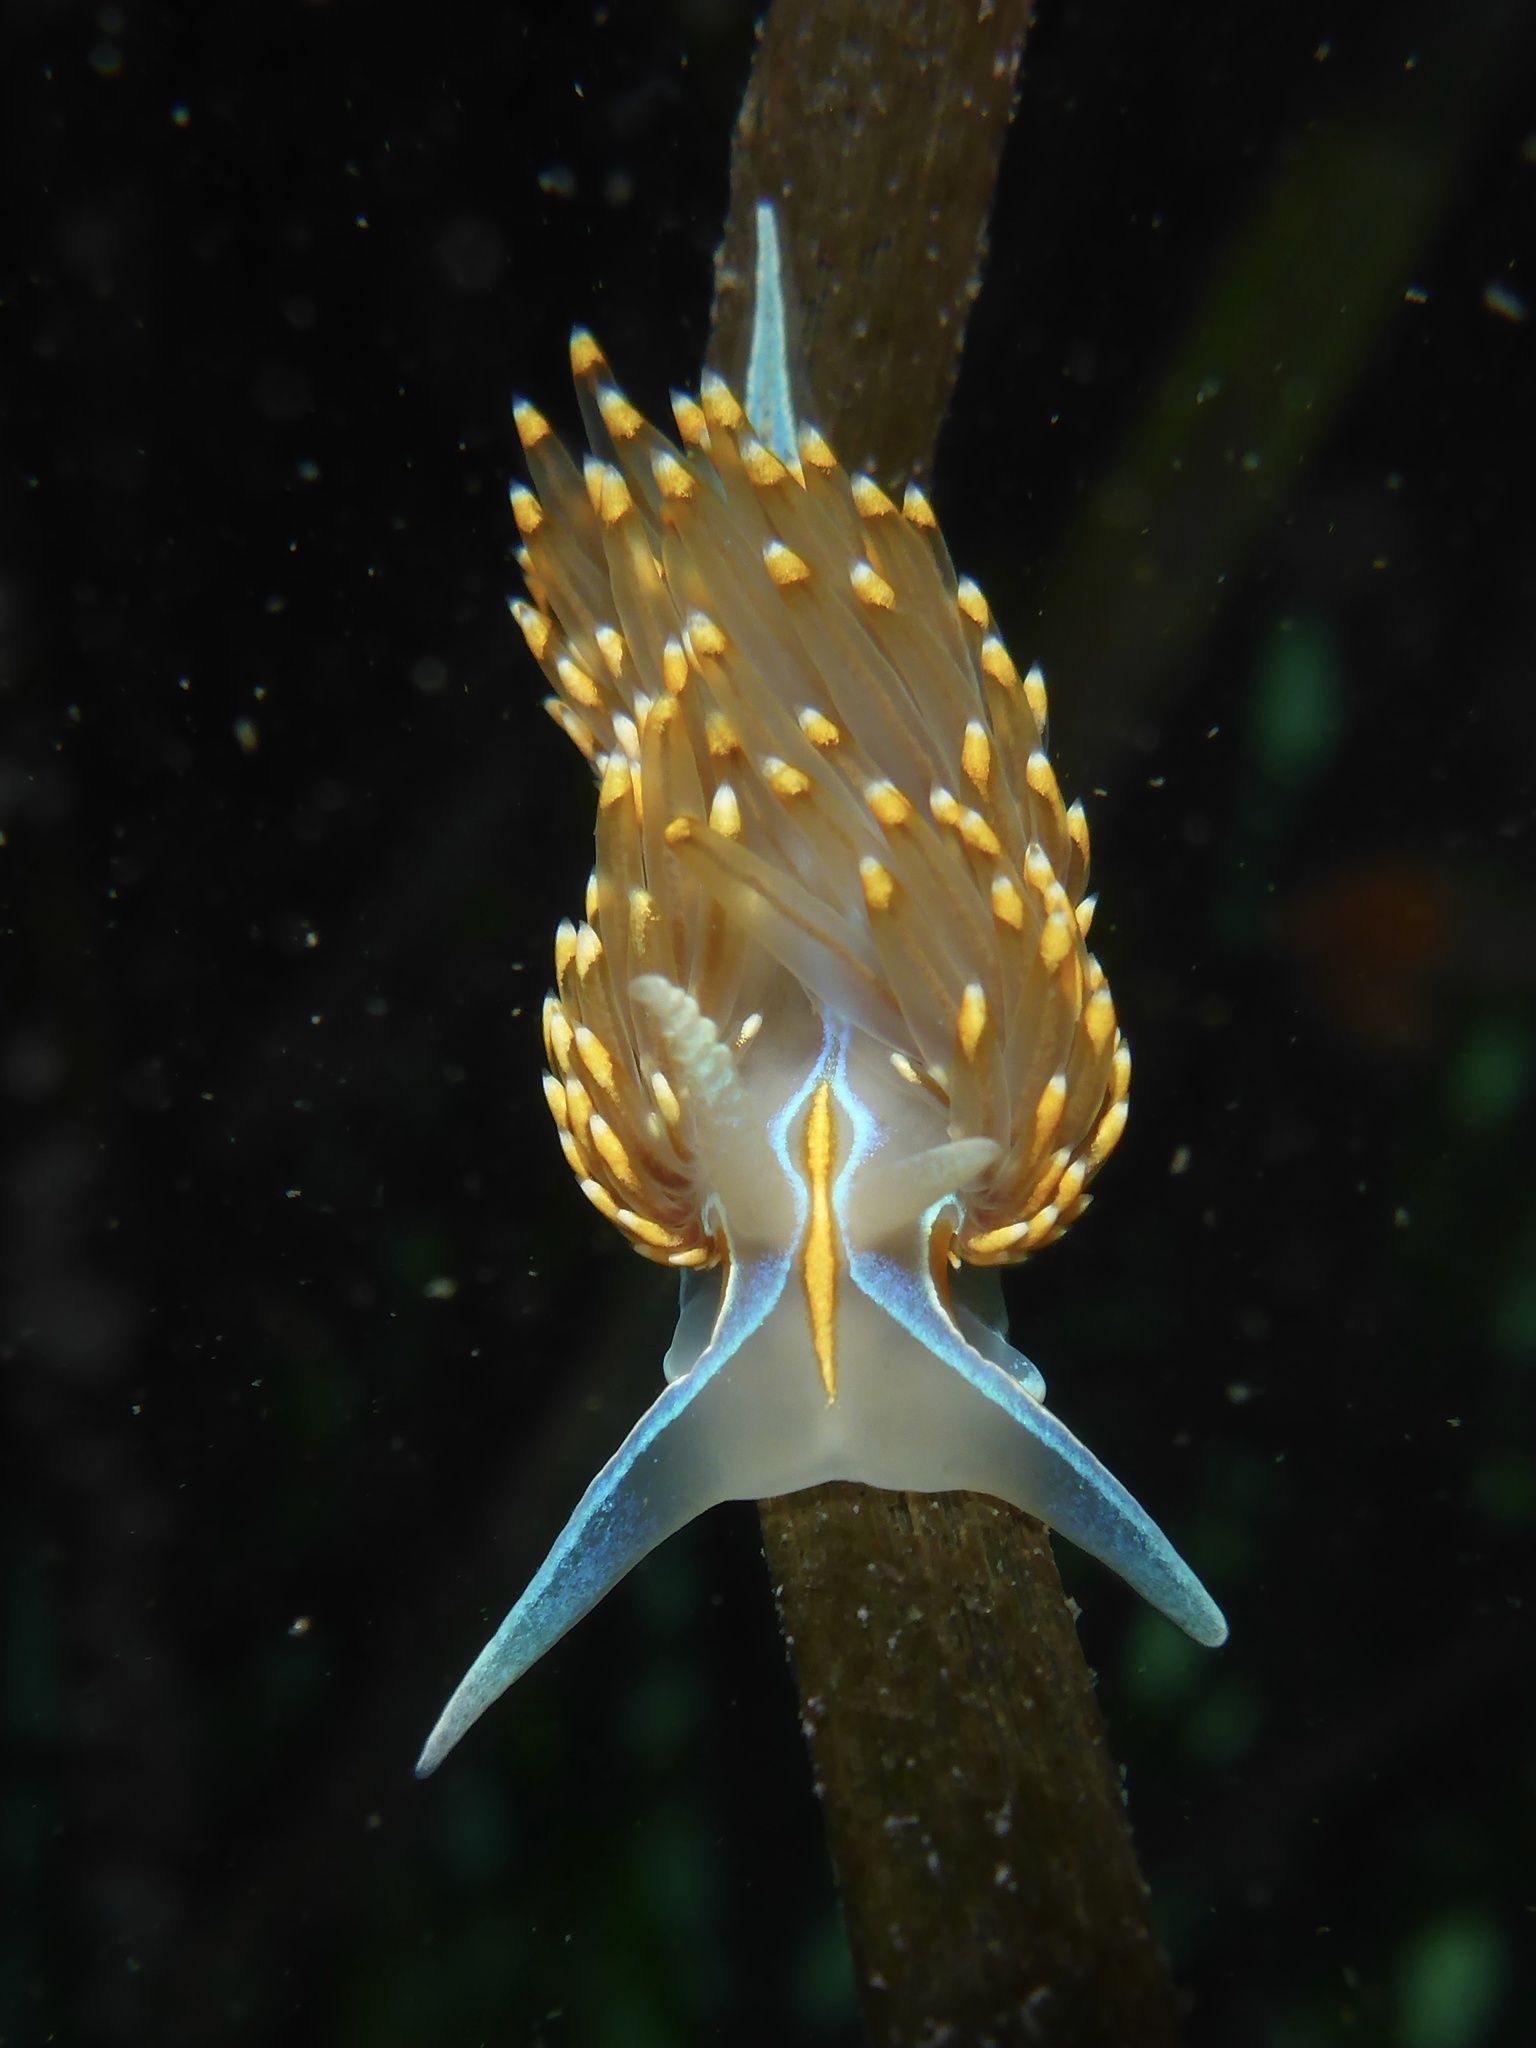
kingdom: Animalia
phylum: Mollusca
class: Gastropoda
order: Nudibranchia
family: Myrrhinidae
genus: Hermissenda
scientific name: Hermissenda opalescens
